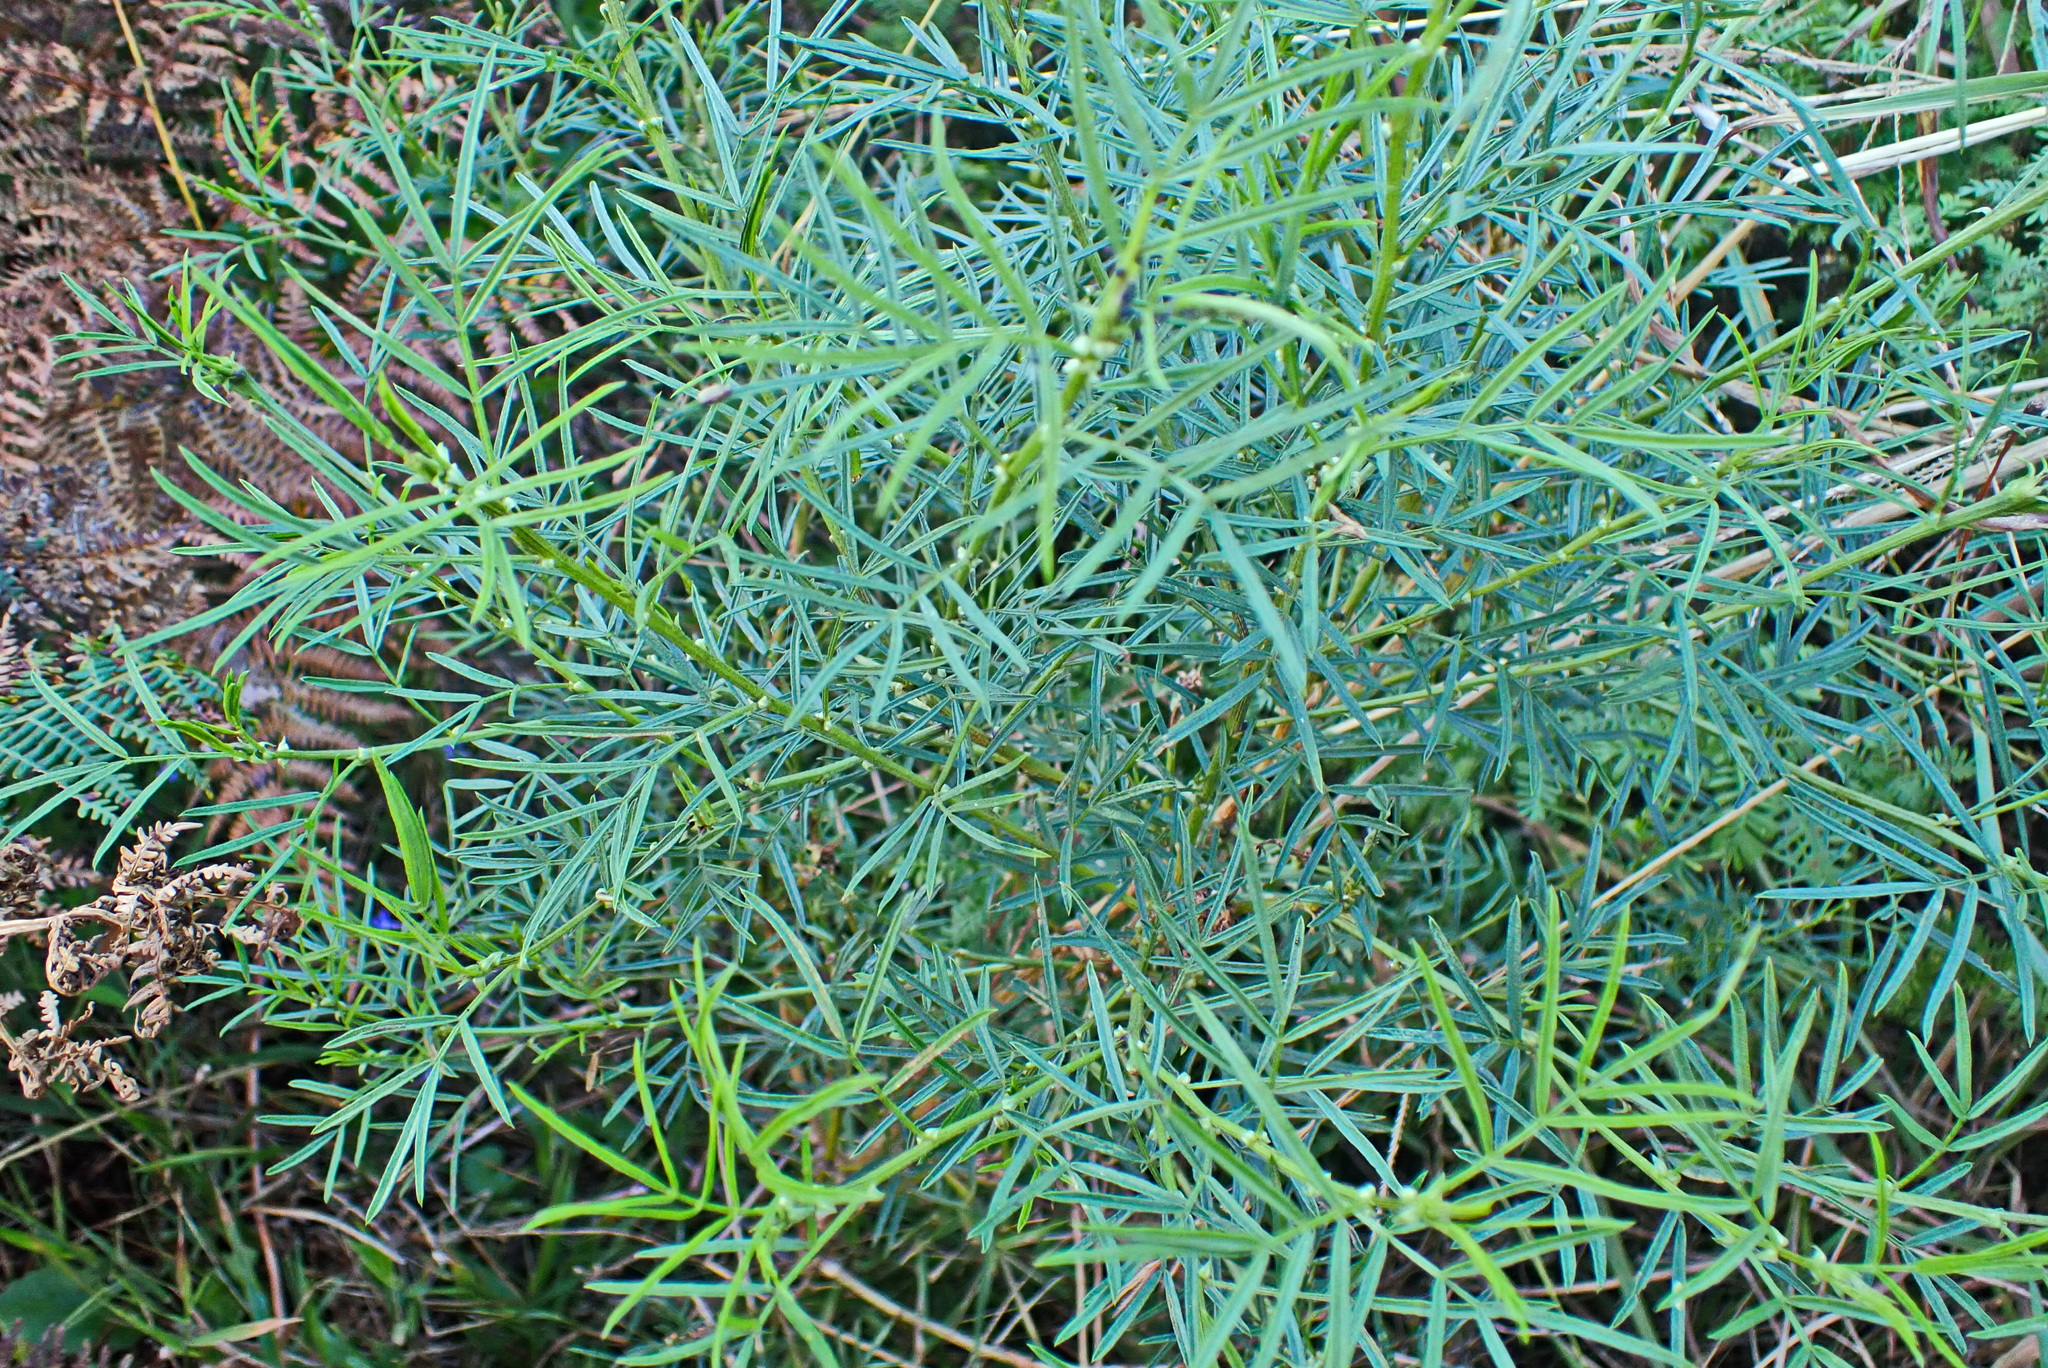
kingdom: Plantae
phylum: Tracheophyta
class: Magnoliopsida
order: Fabales
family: Fabaceae
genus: Psoralea
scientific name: Psoralea arborea
